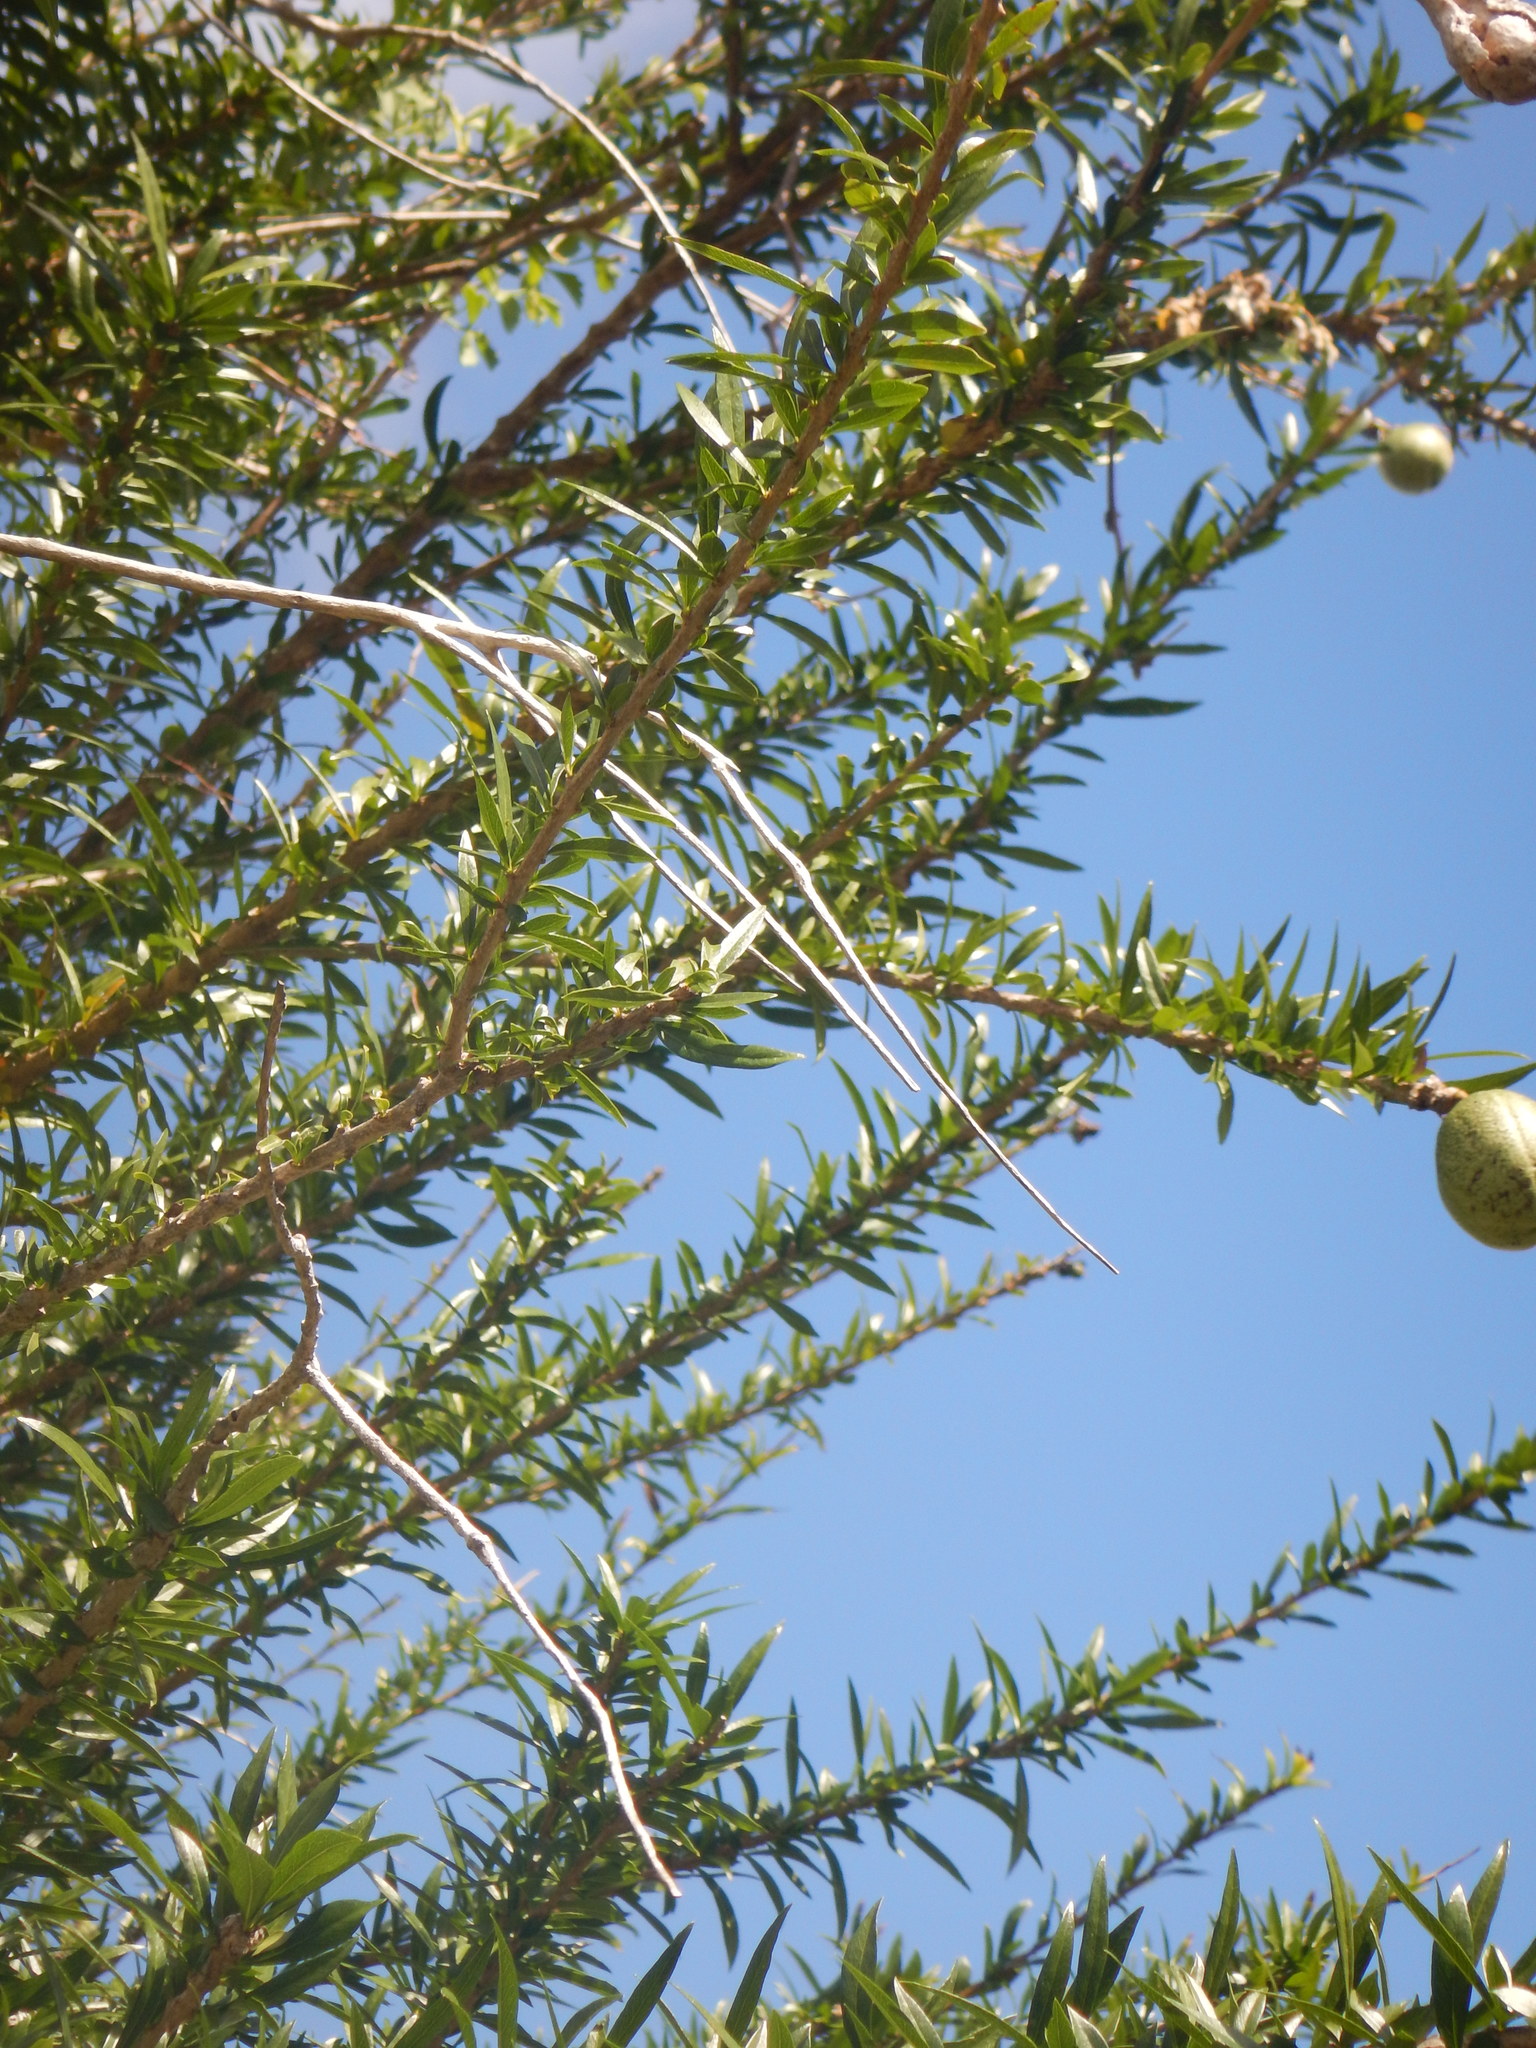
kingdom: Plantae
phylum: Tracheophyta
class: Magnoliopsida
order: Lamiales
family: Bignoniaceae
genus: Crescentia
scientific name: Crescentia linearifolia
